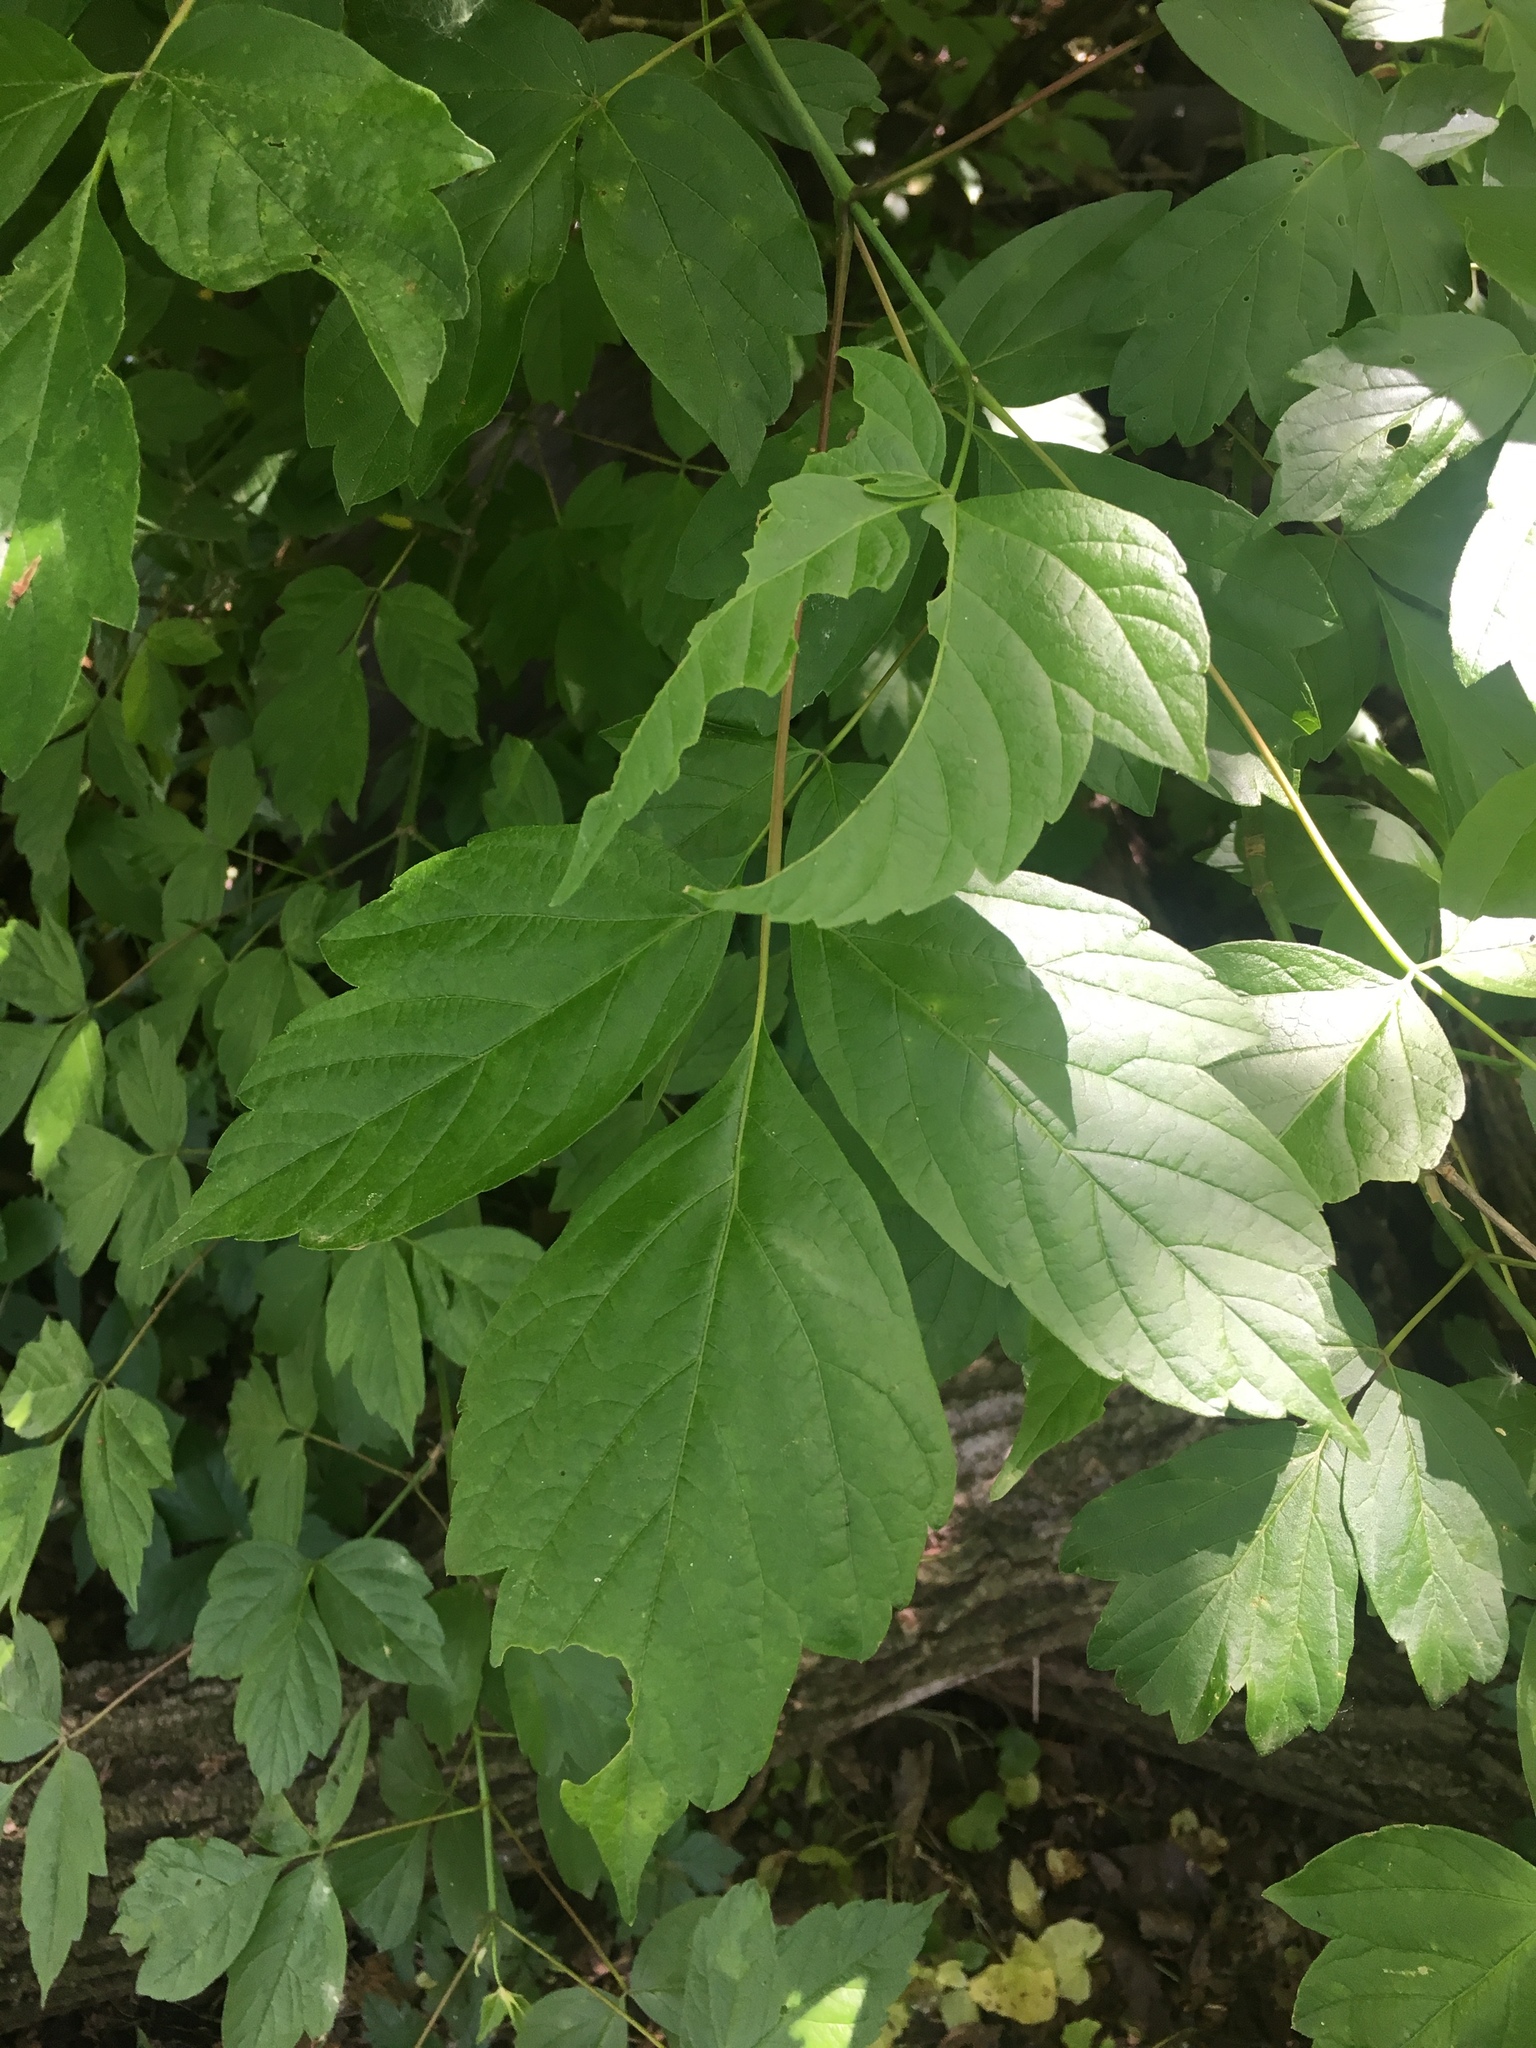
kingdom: Plantae
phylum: Tracheophyta
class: Magnoliopsida
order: Sapindales
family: Sapindaceae
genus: Acer
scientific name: Acer negundo
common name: Ashleaf maple
